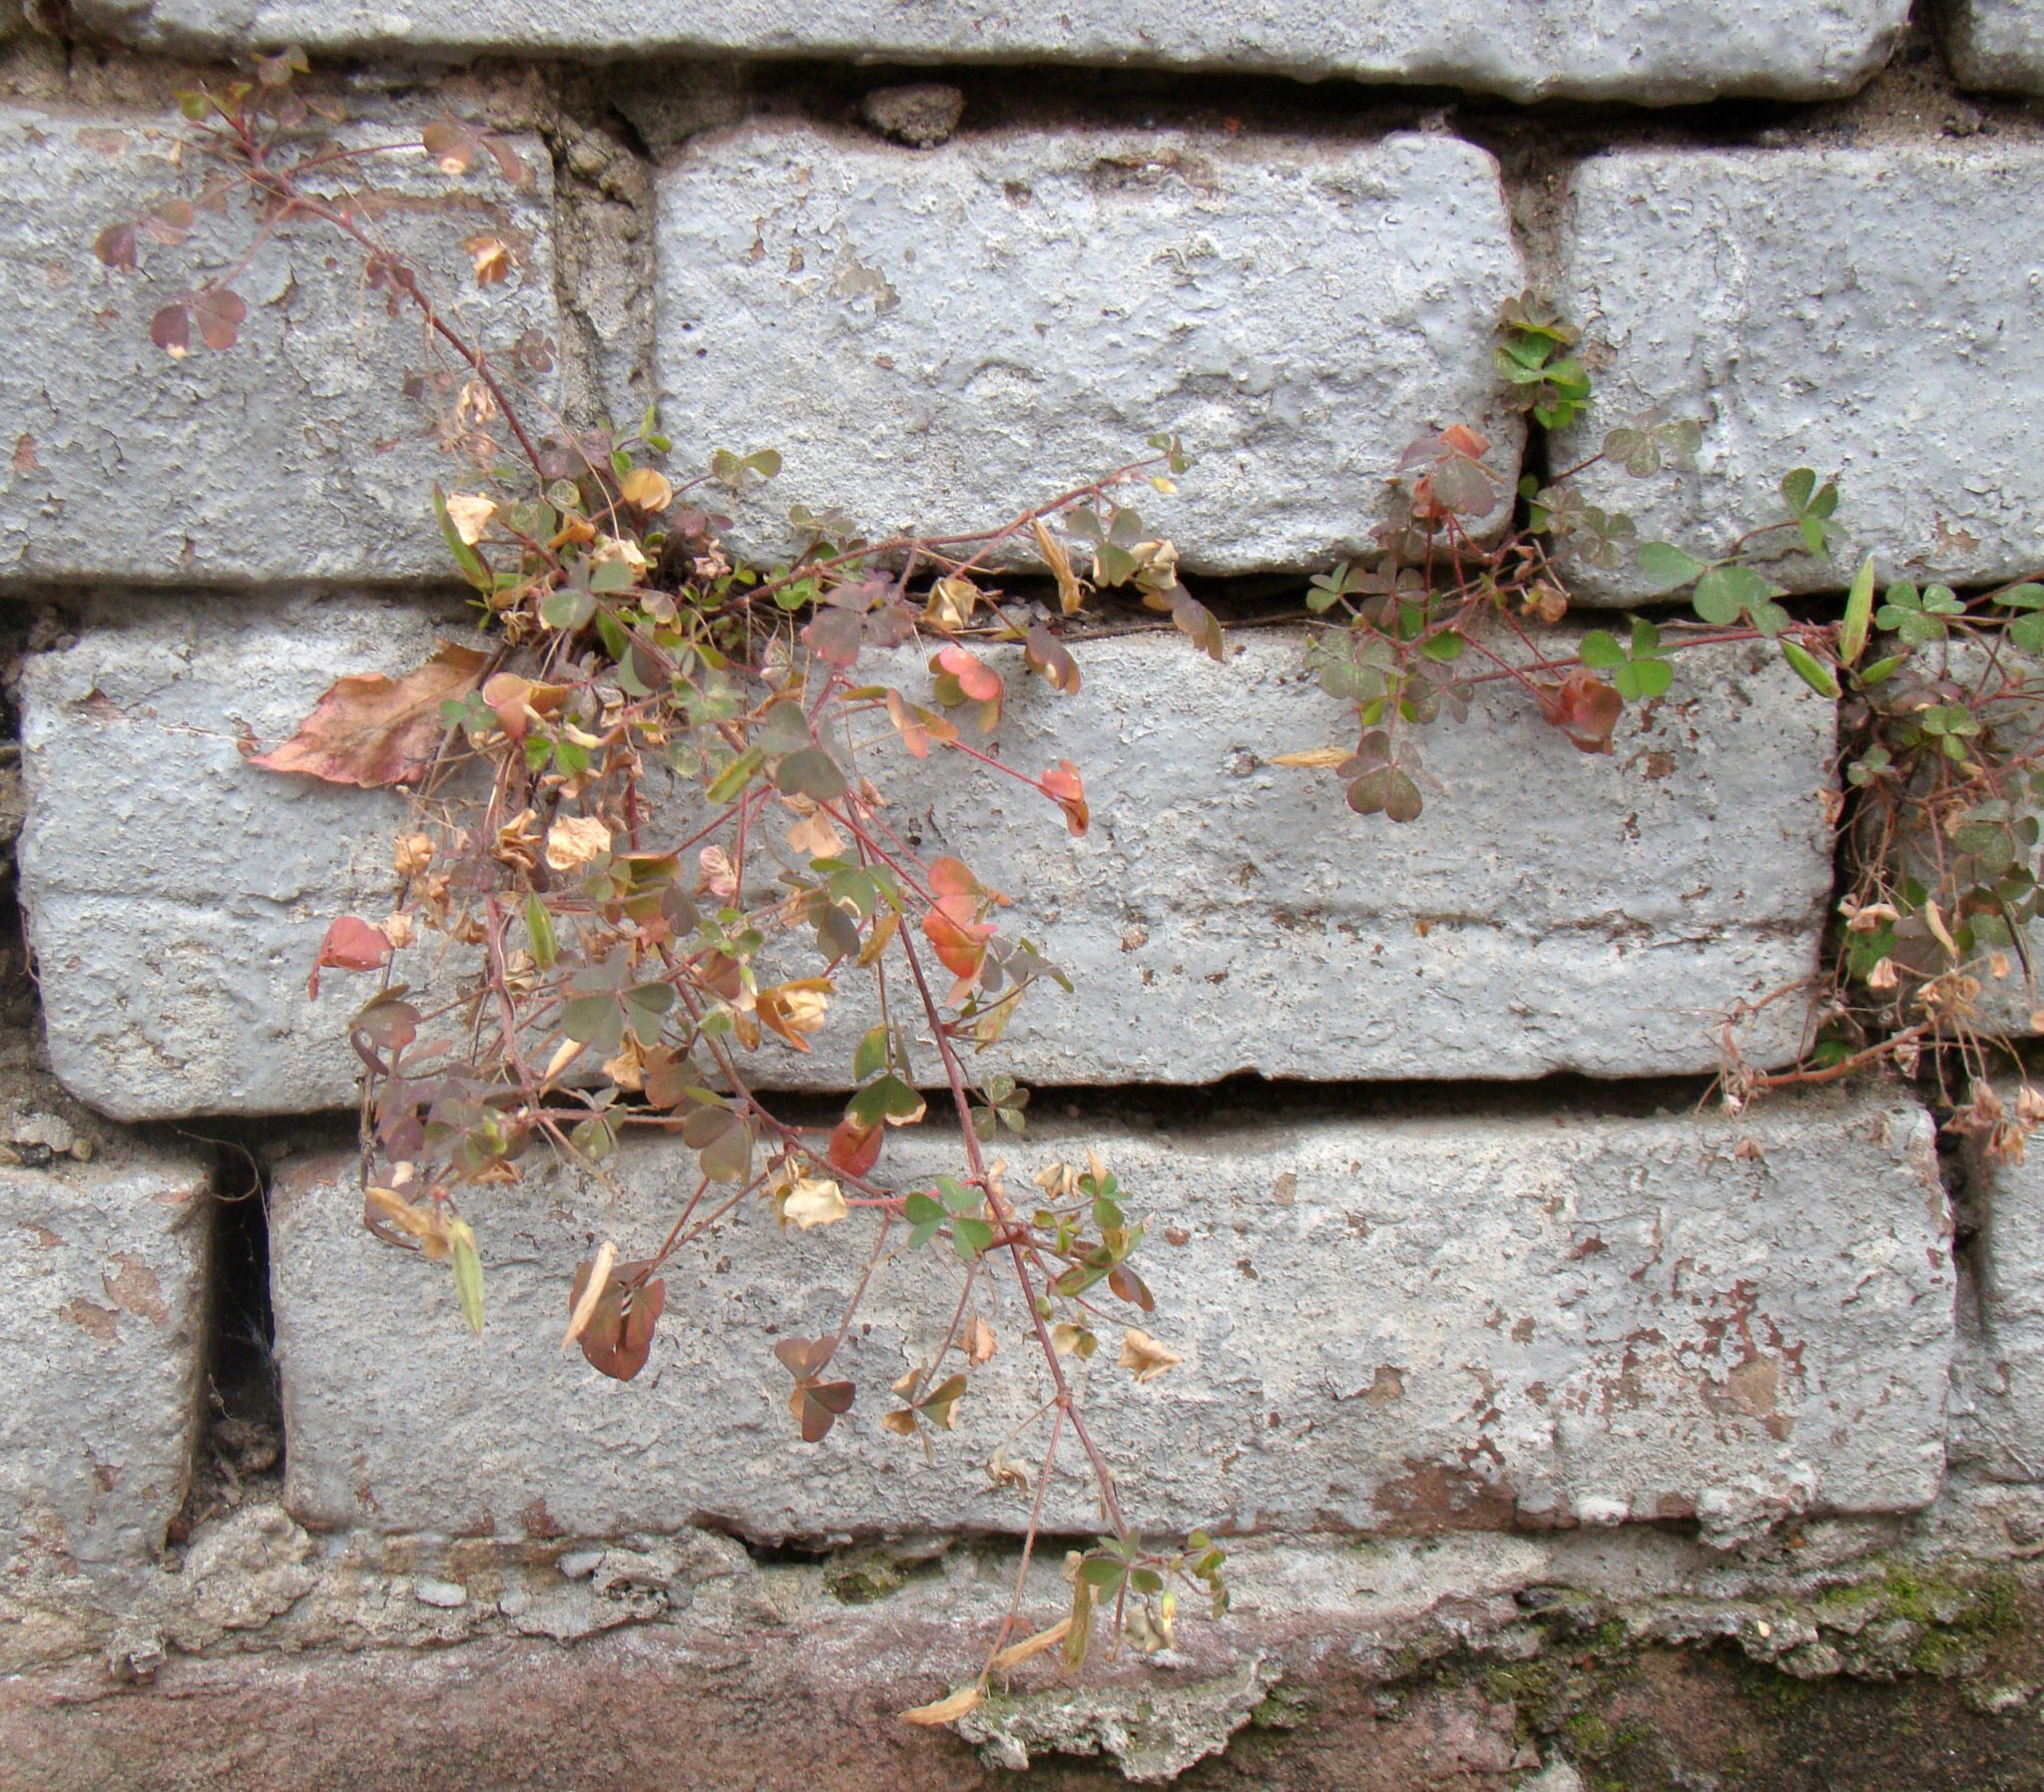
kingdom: Plantae
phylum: Tracheophyta
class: Magnoliopsida
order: Oxalidales
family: Oxalidaceae
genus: Oxalis
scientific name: Oxalis corniculata
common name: Procumbent yellow-sorrel
